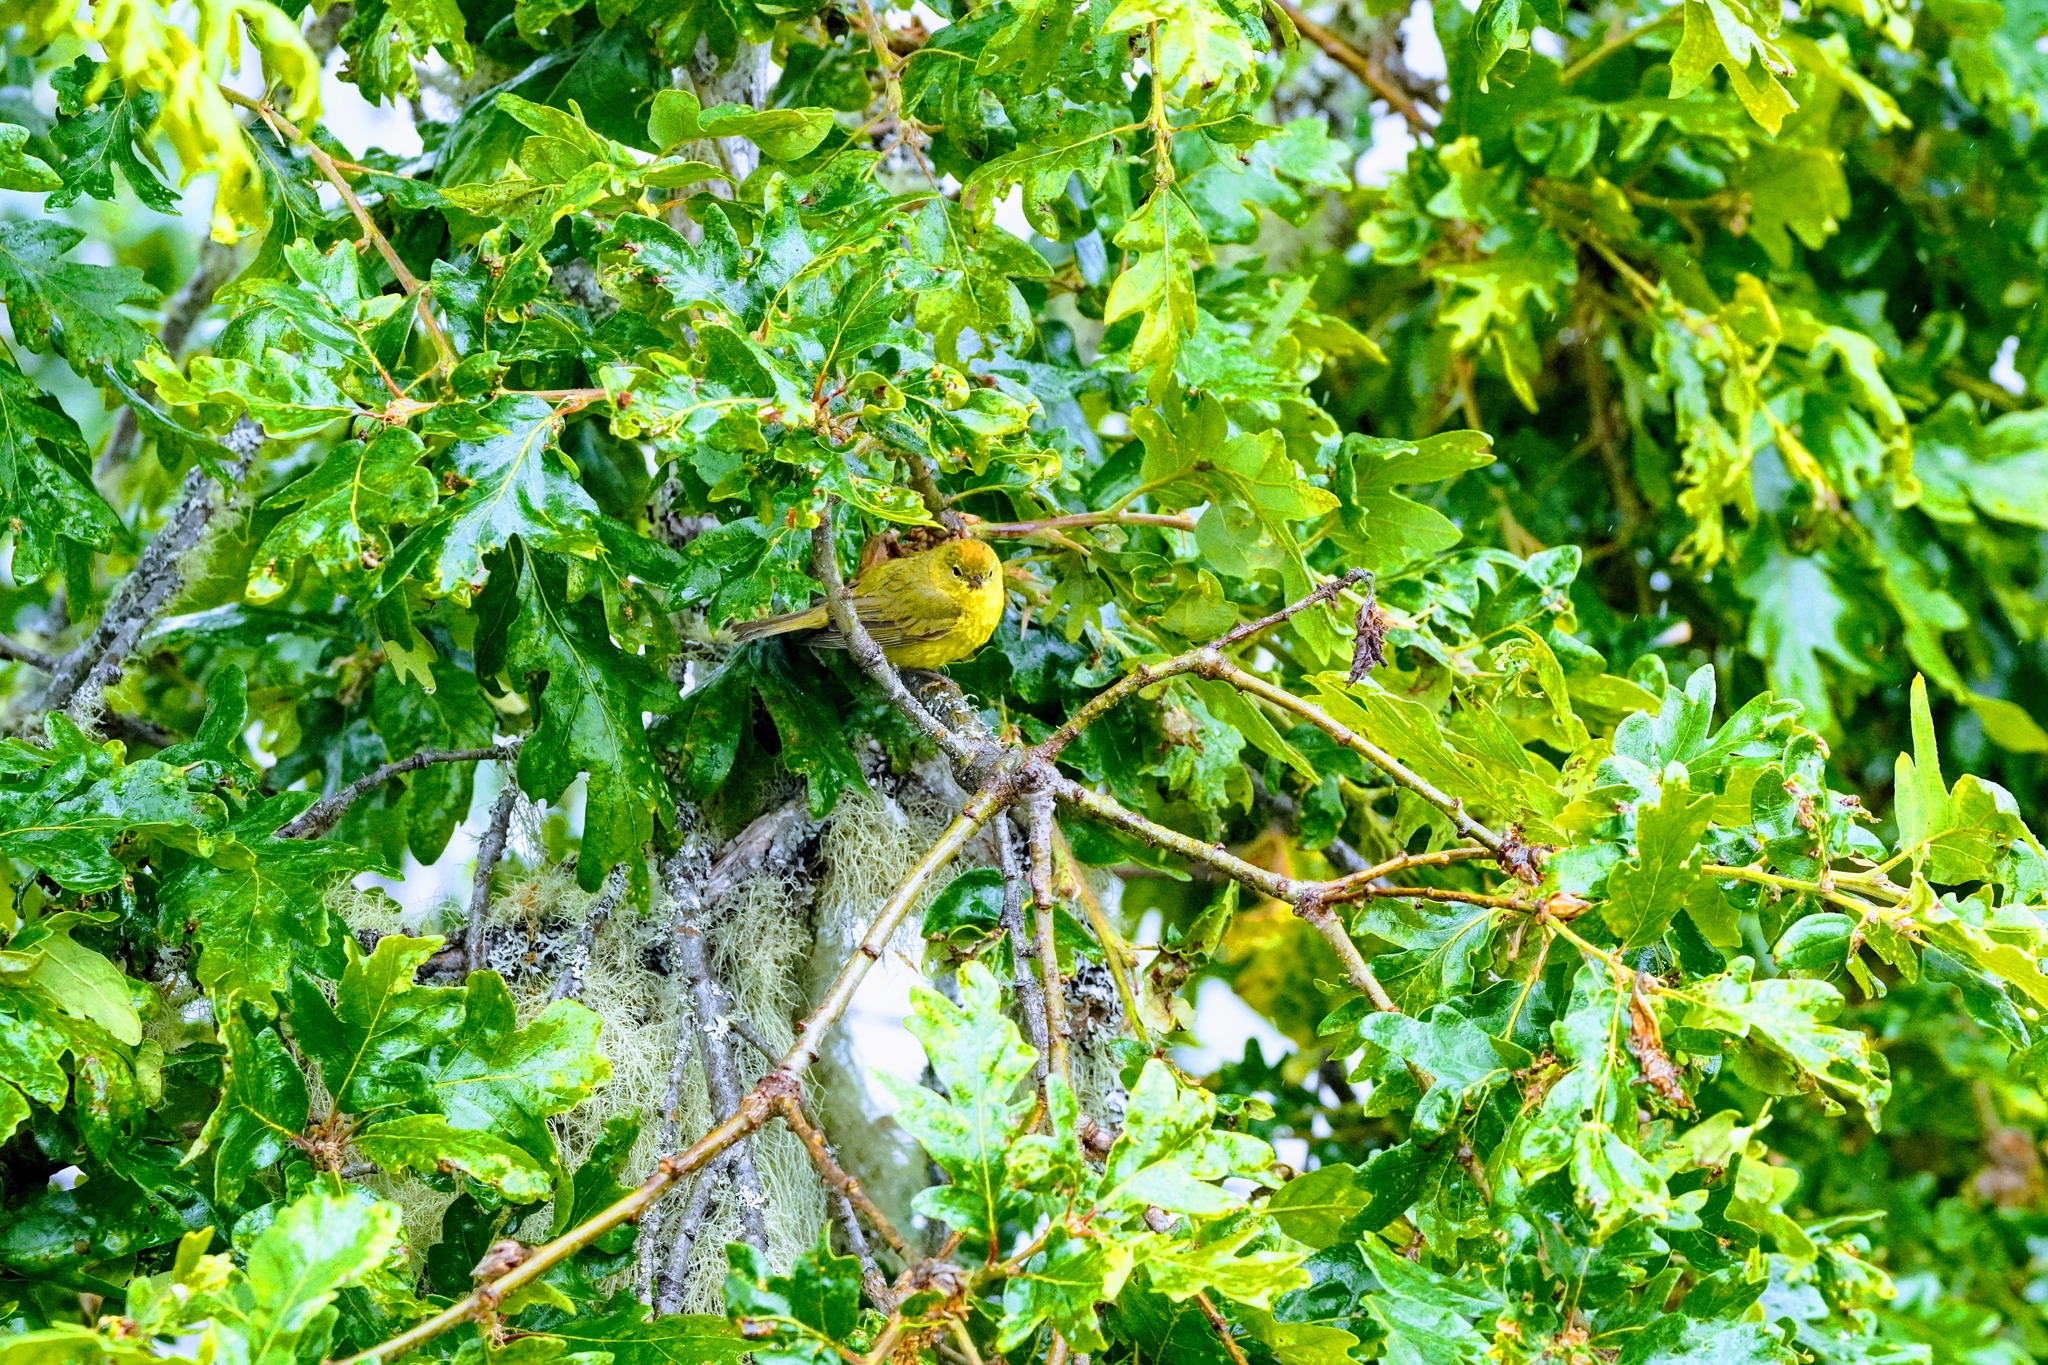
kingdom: Animalia
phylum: Chordata
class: Aves
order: Passeriformes
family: Parulidae
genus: Leiothlypis
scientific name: Leiothlypis celata
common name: Orange-crowned warbler
